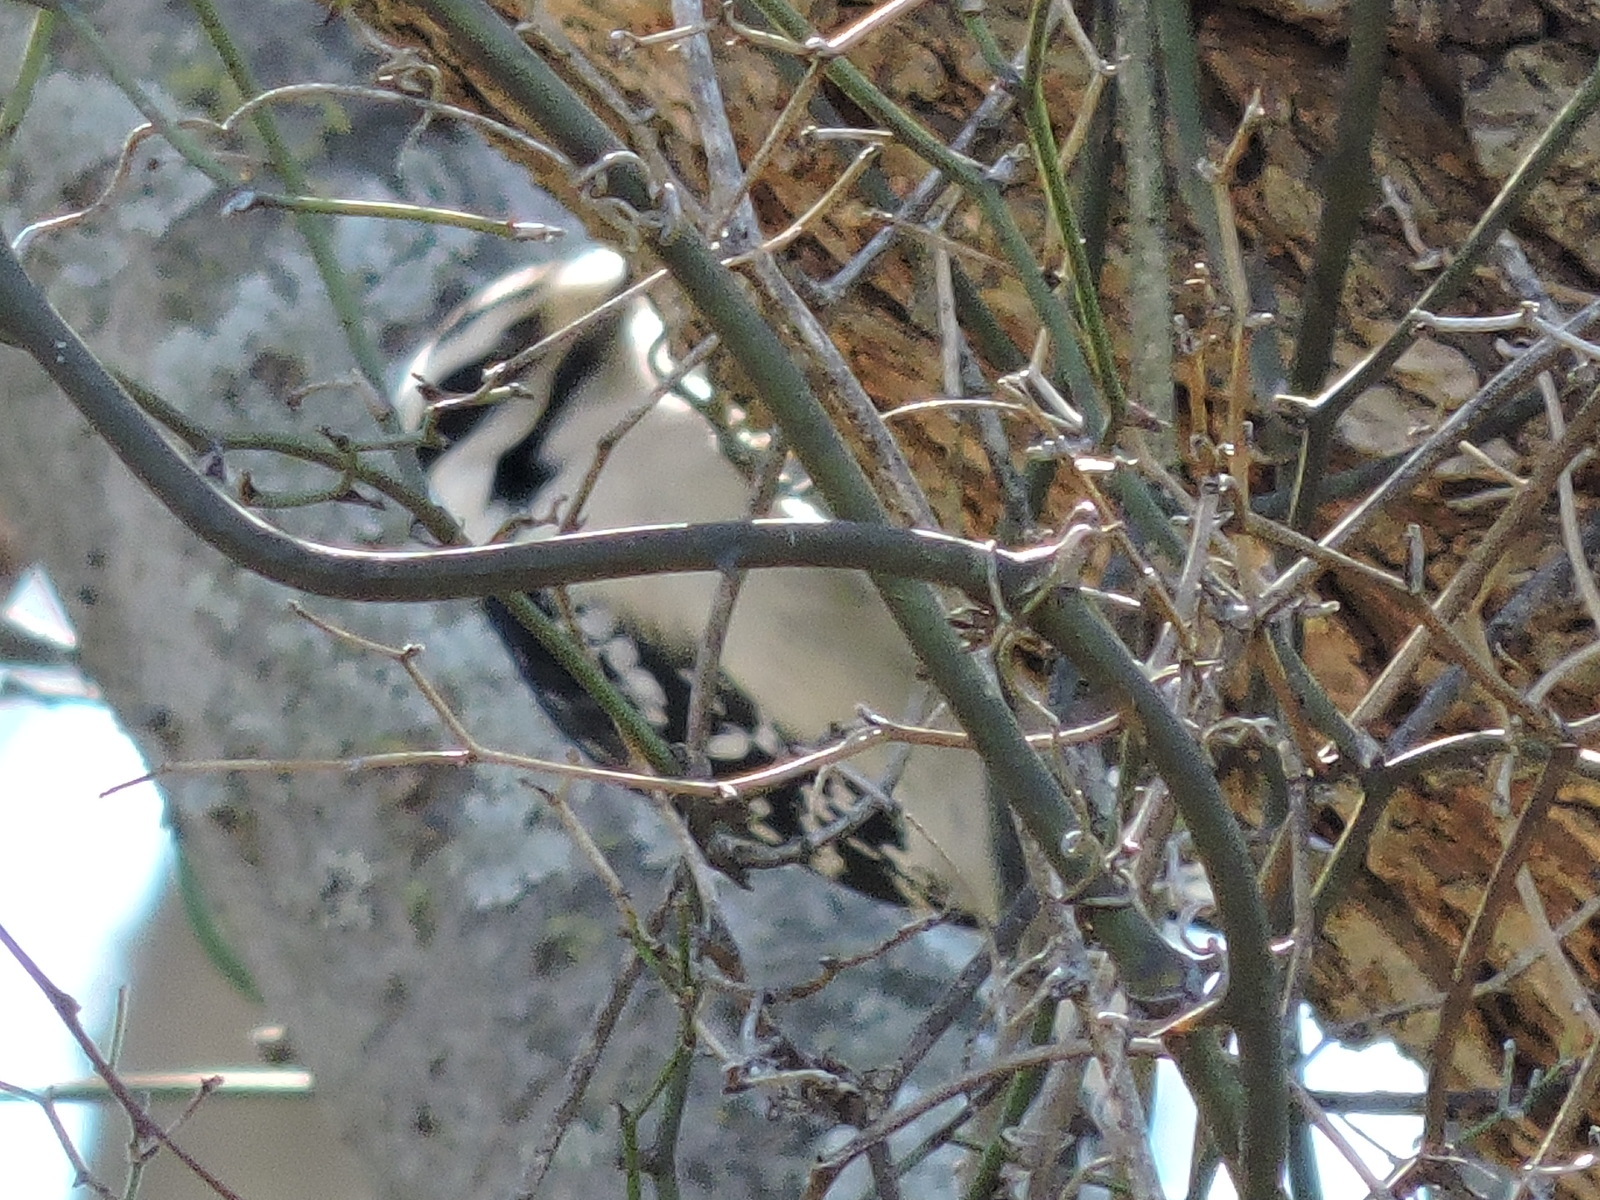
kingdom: Animalia
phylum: Chordata
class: Aves
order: Piciformes
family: Picidae
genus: Dryobates
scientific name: Dryobates pubescens
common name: Downy woodpecker
